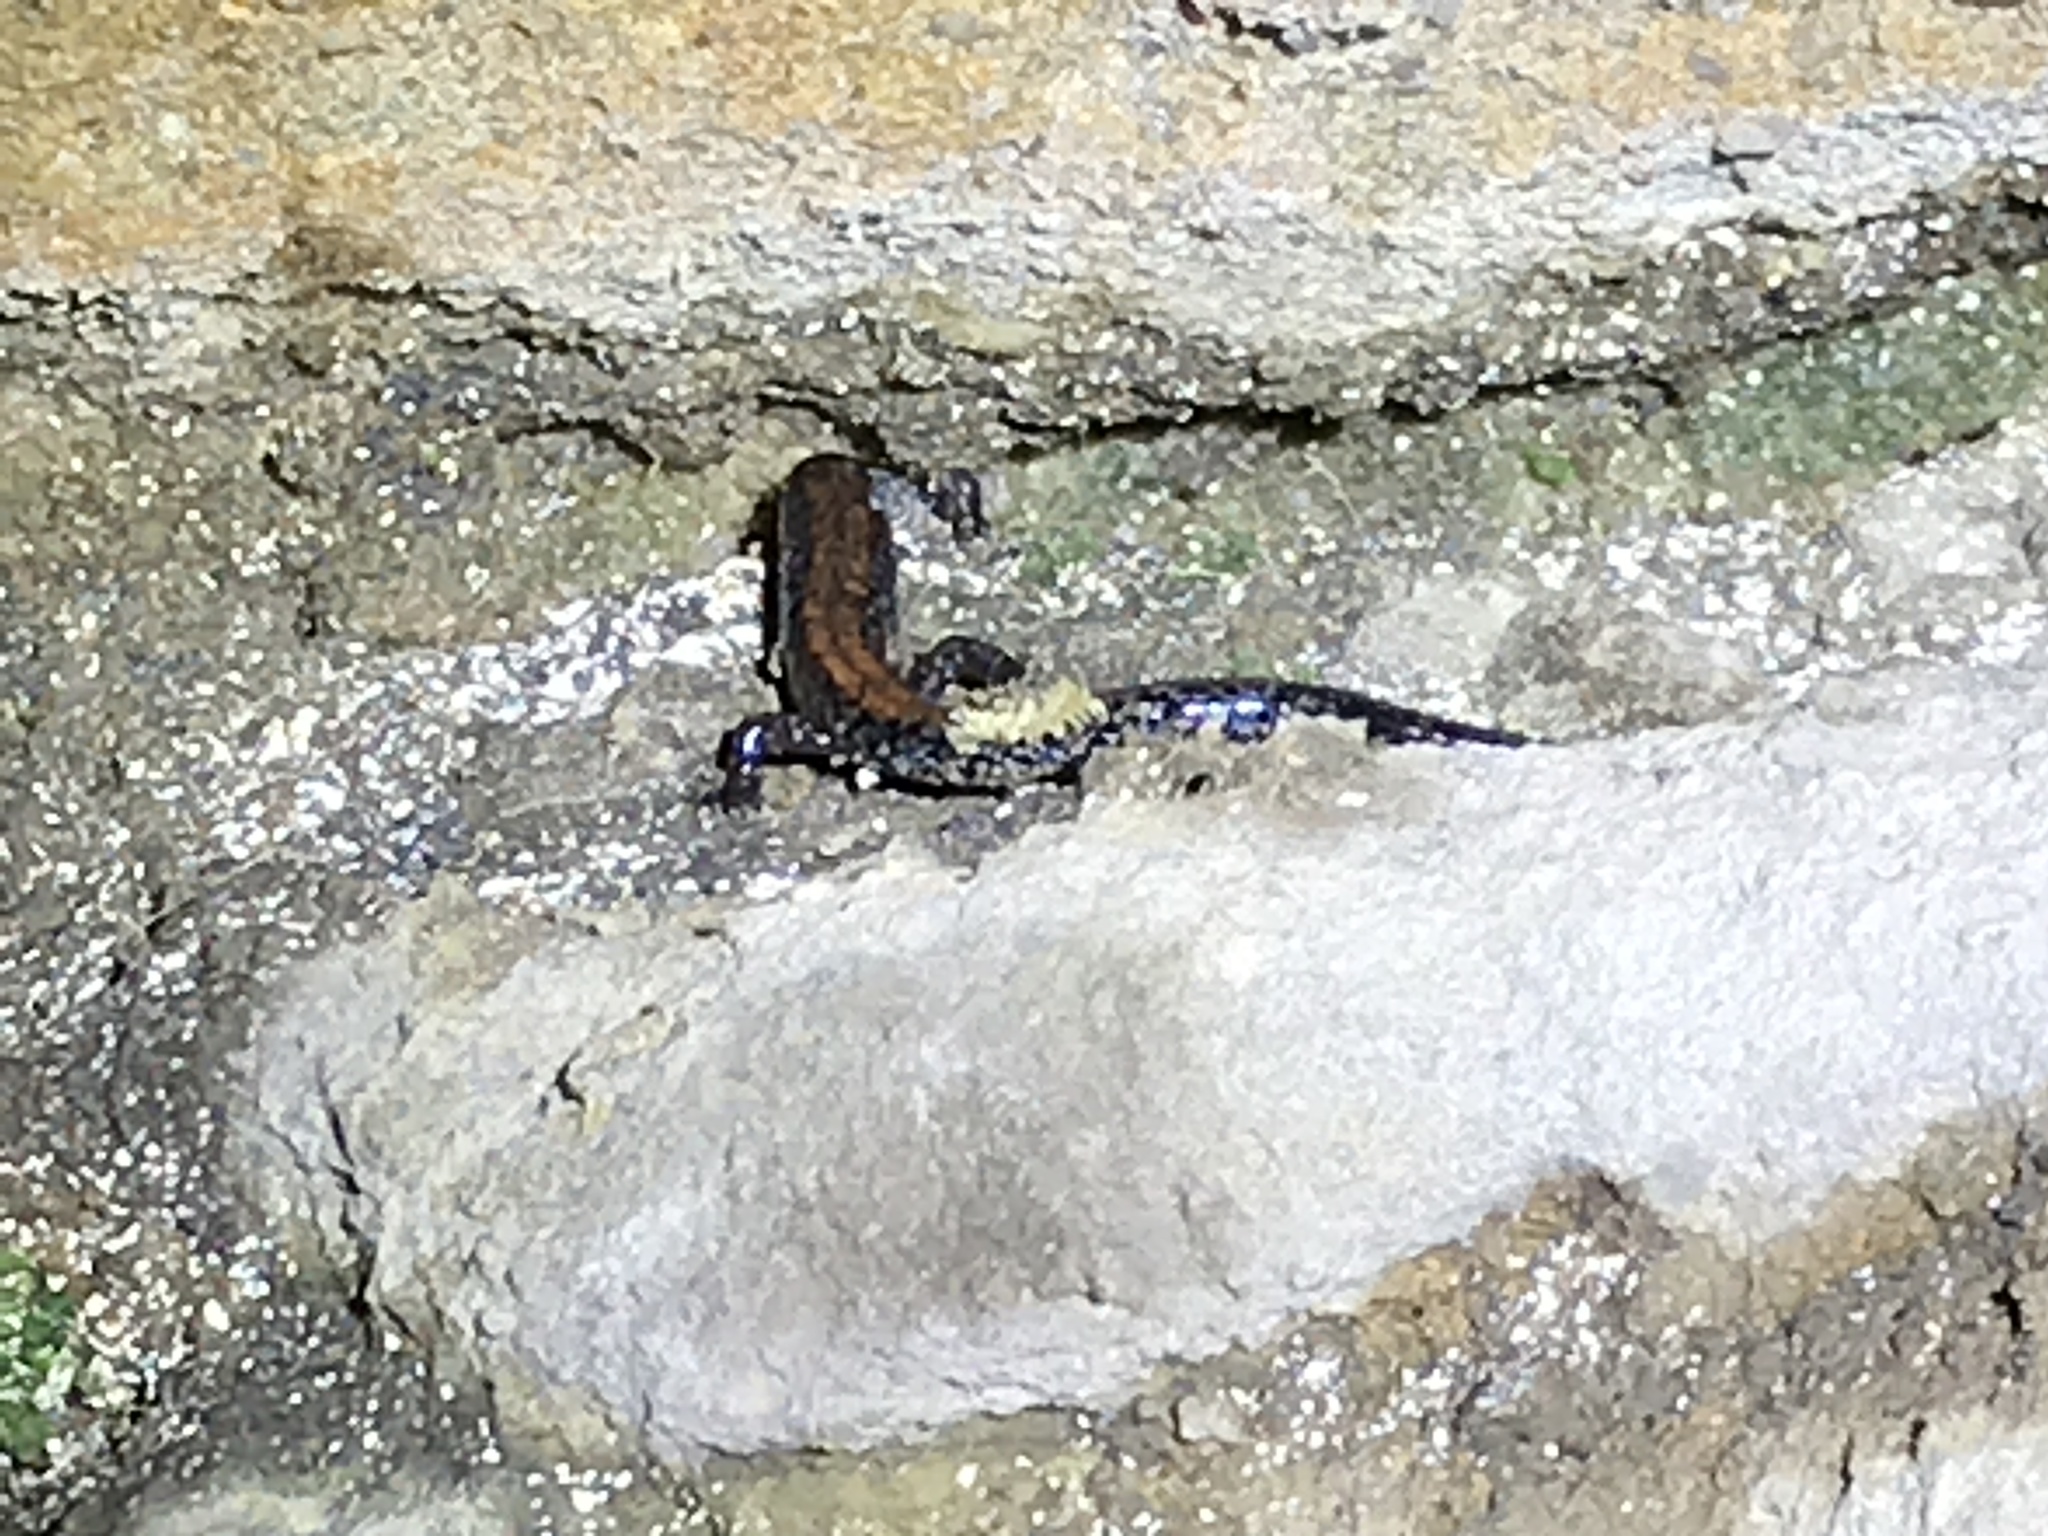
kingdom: Animalia
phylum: Chordata
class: Amphibia
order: Caudata
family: Plethodontidae
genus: Plethodon
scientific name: Plethodon cinereus
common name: Redback salamander
